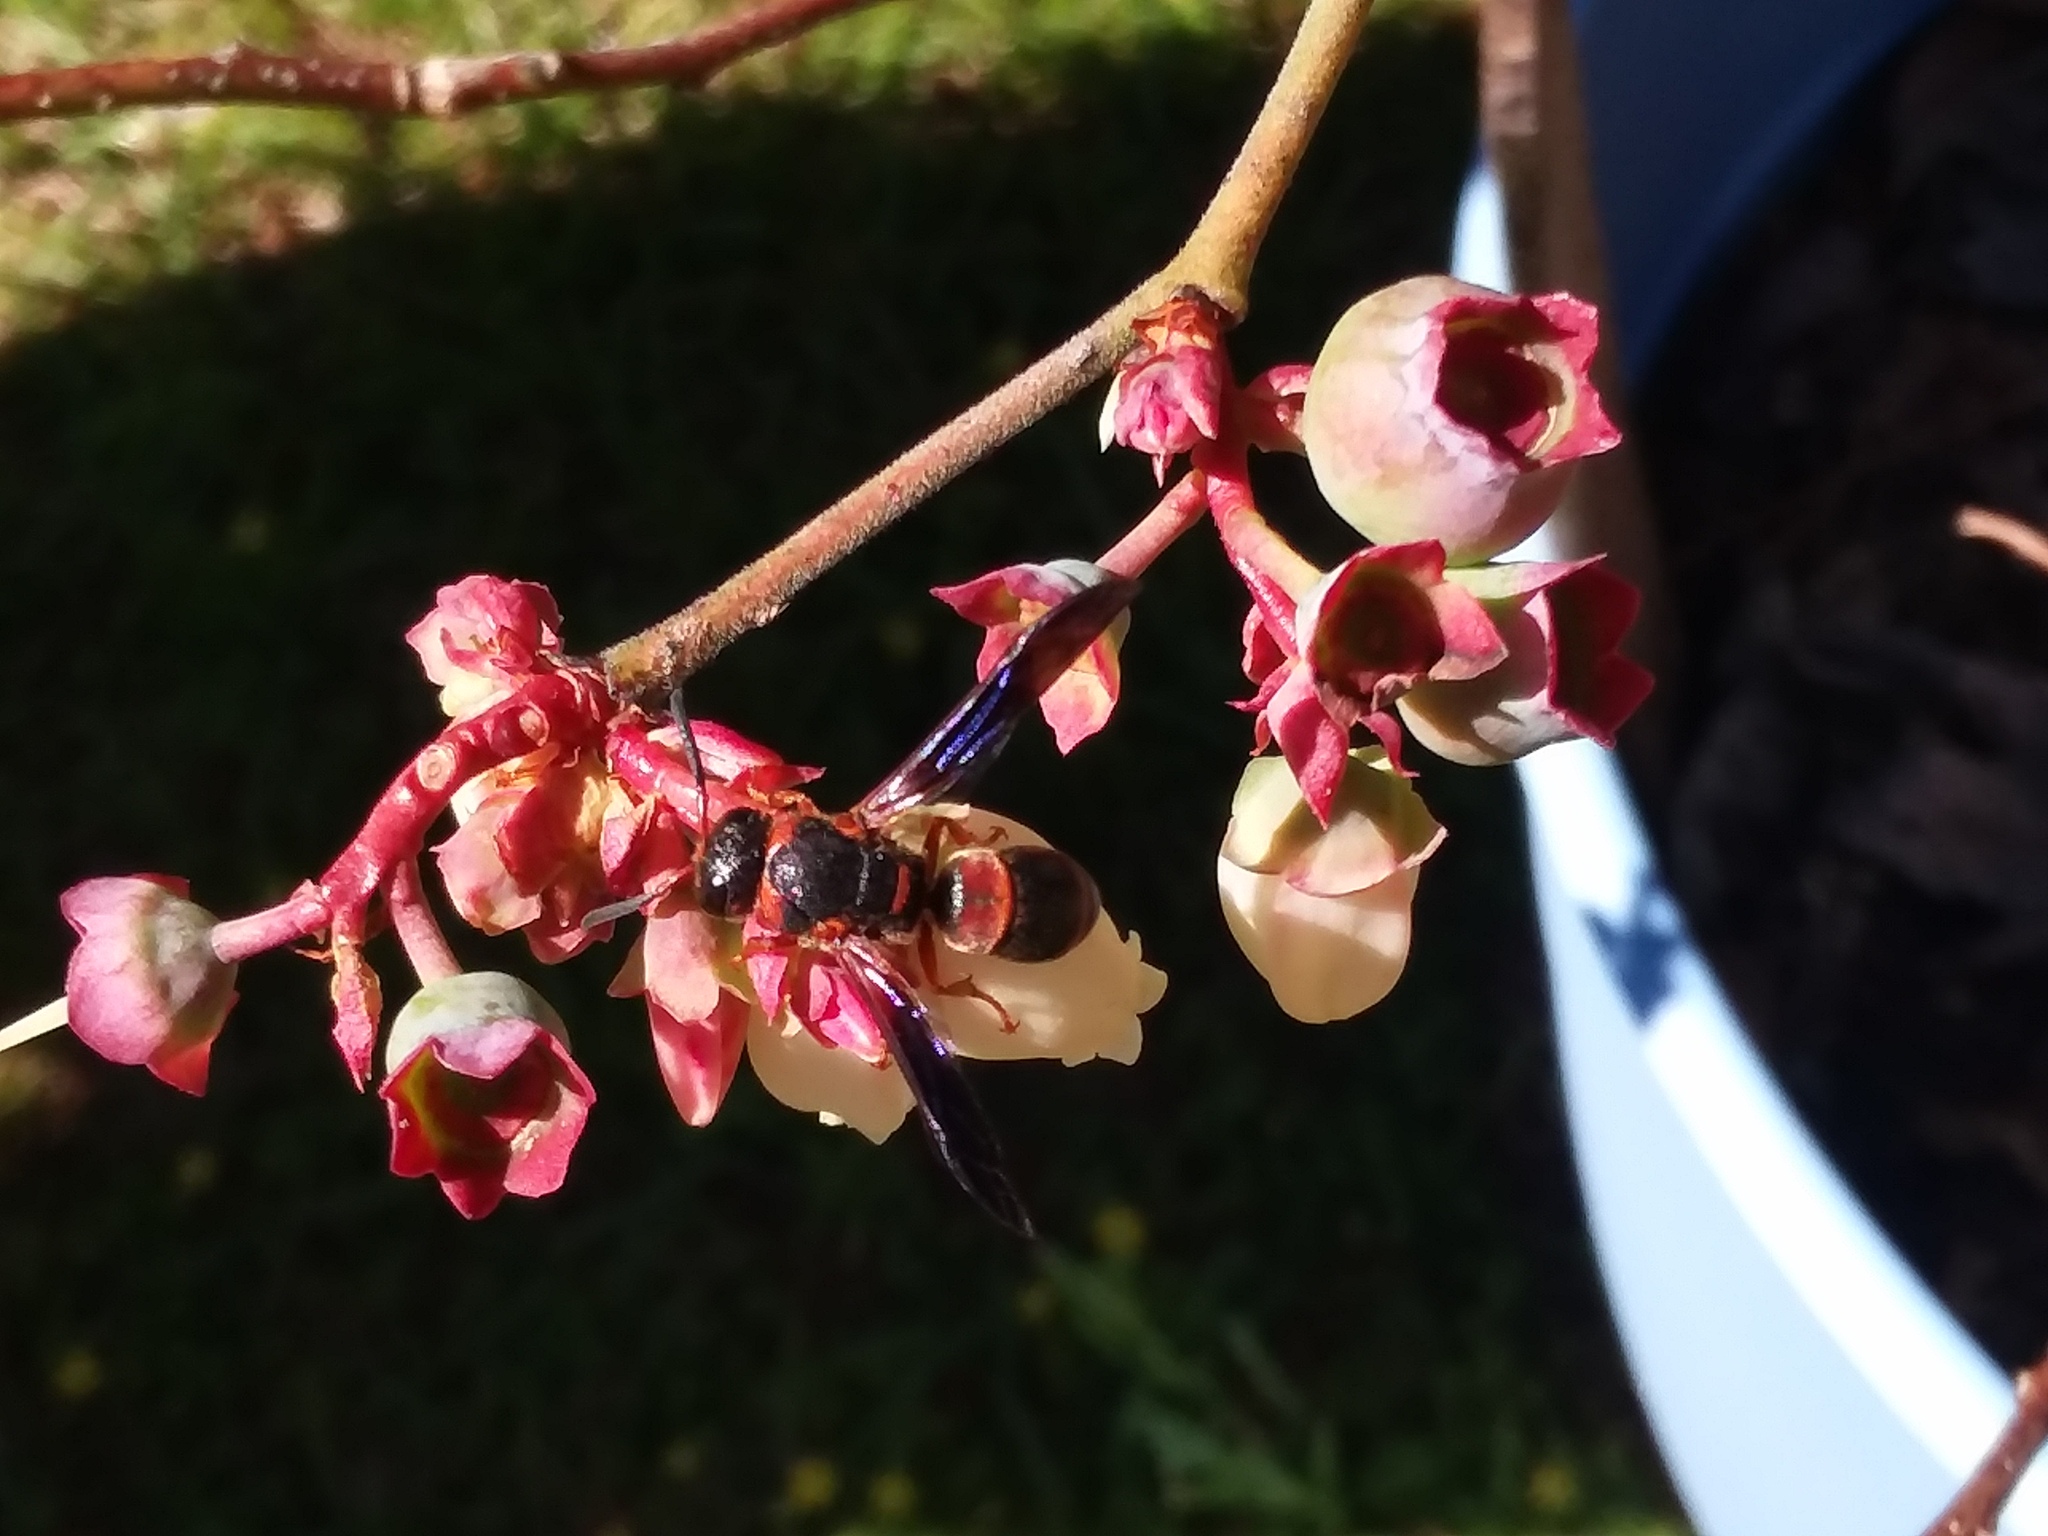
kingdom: Animalia
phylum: Arthropoda
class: Insecta
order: Hymenoptera
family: Eumenidae
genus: Pachodynerus
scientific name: Pachodynerus erynnis
